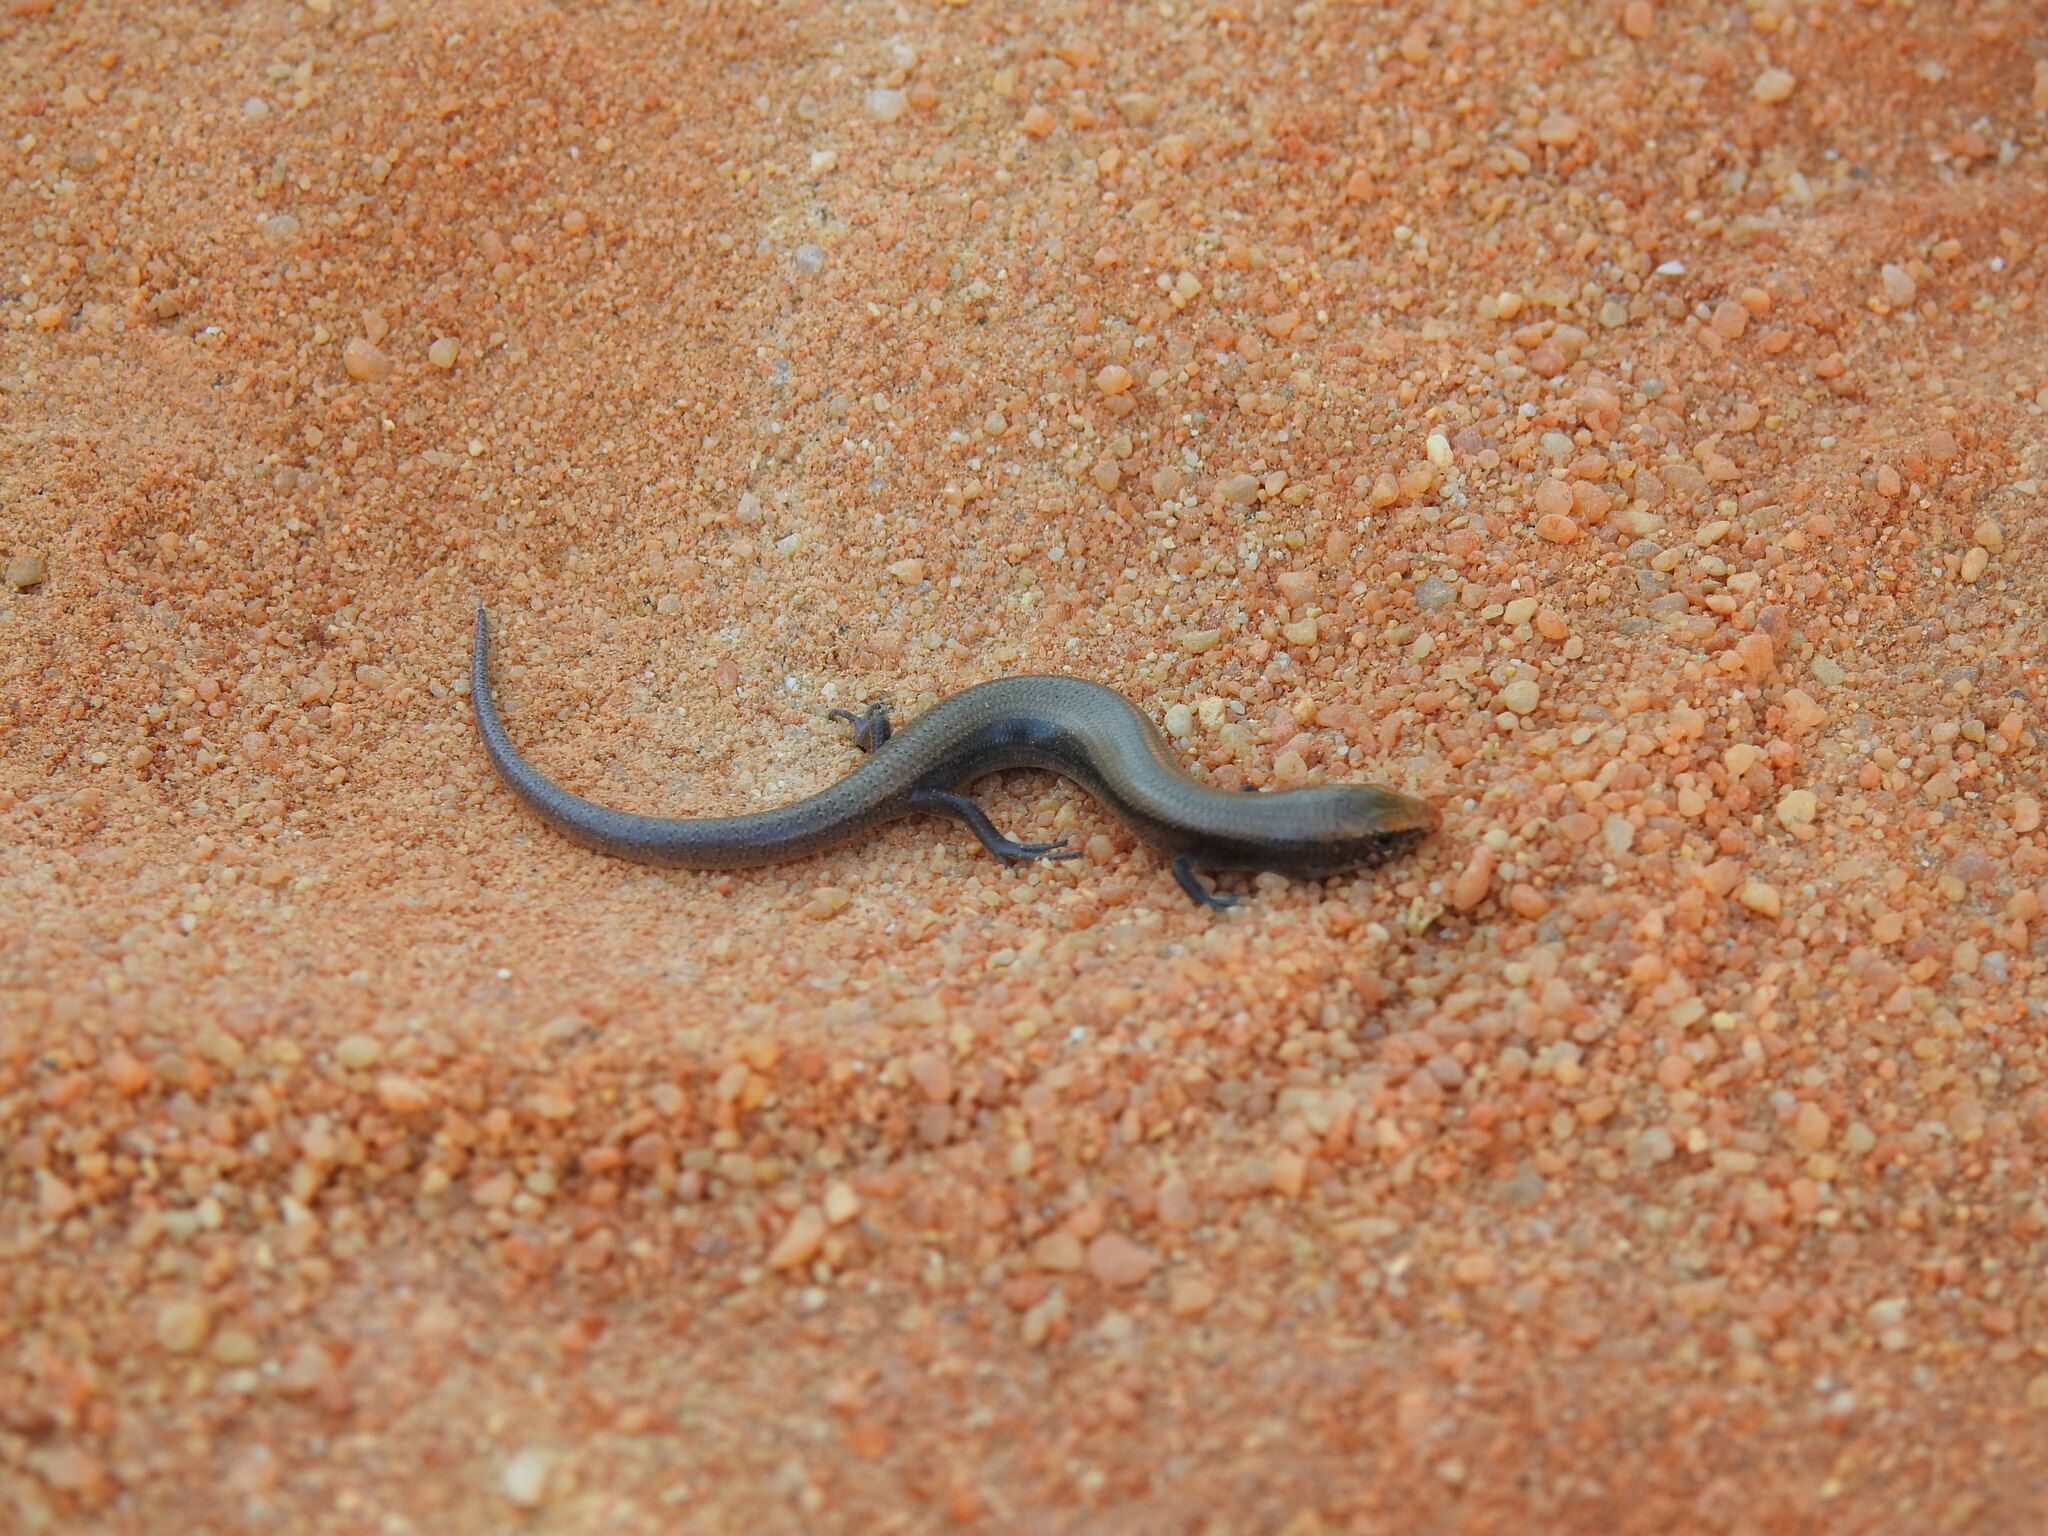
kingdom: Animalia
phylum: Chordata
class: Squamata
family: Scincidae
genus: Chalcides
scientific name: Chalcides bedriagai
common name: Spanish cylindrical skink
